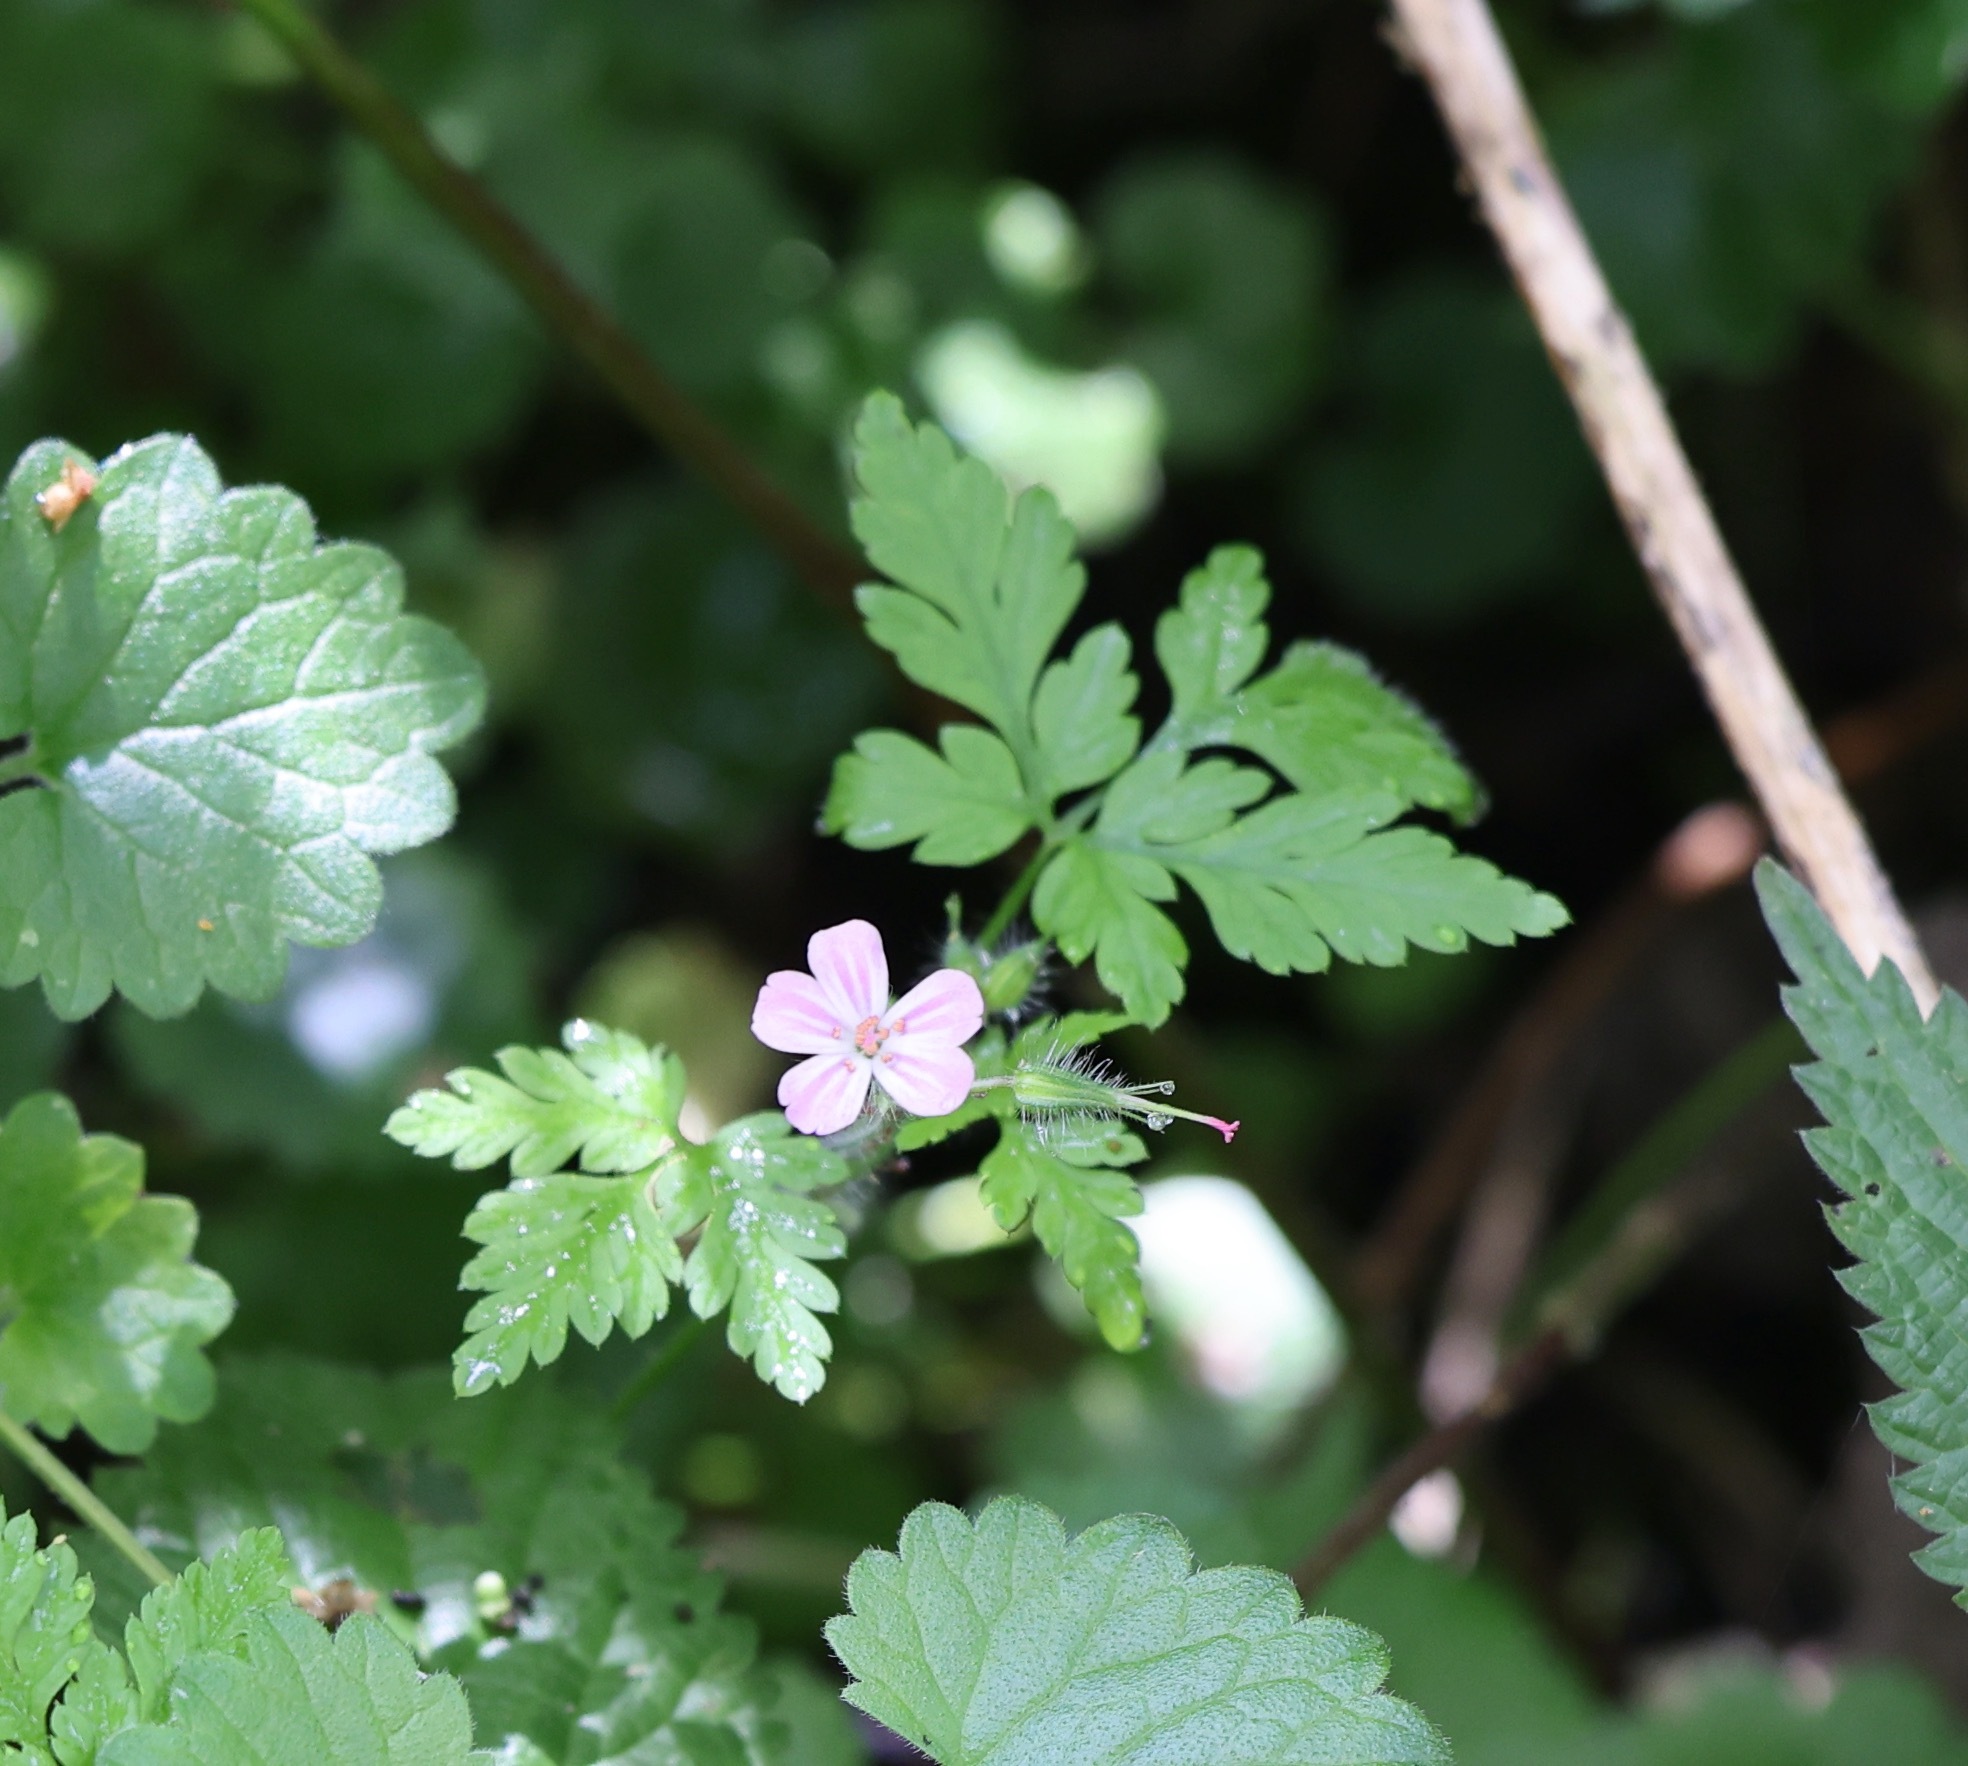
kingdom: Plantae
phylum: Tracheophyta
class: Magnoliopsida
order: Geraniales
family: Geraniaceae
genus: Geranium
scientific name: Geranium robertianum
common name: Herb-robert
